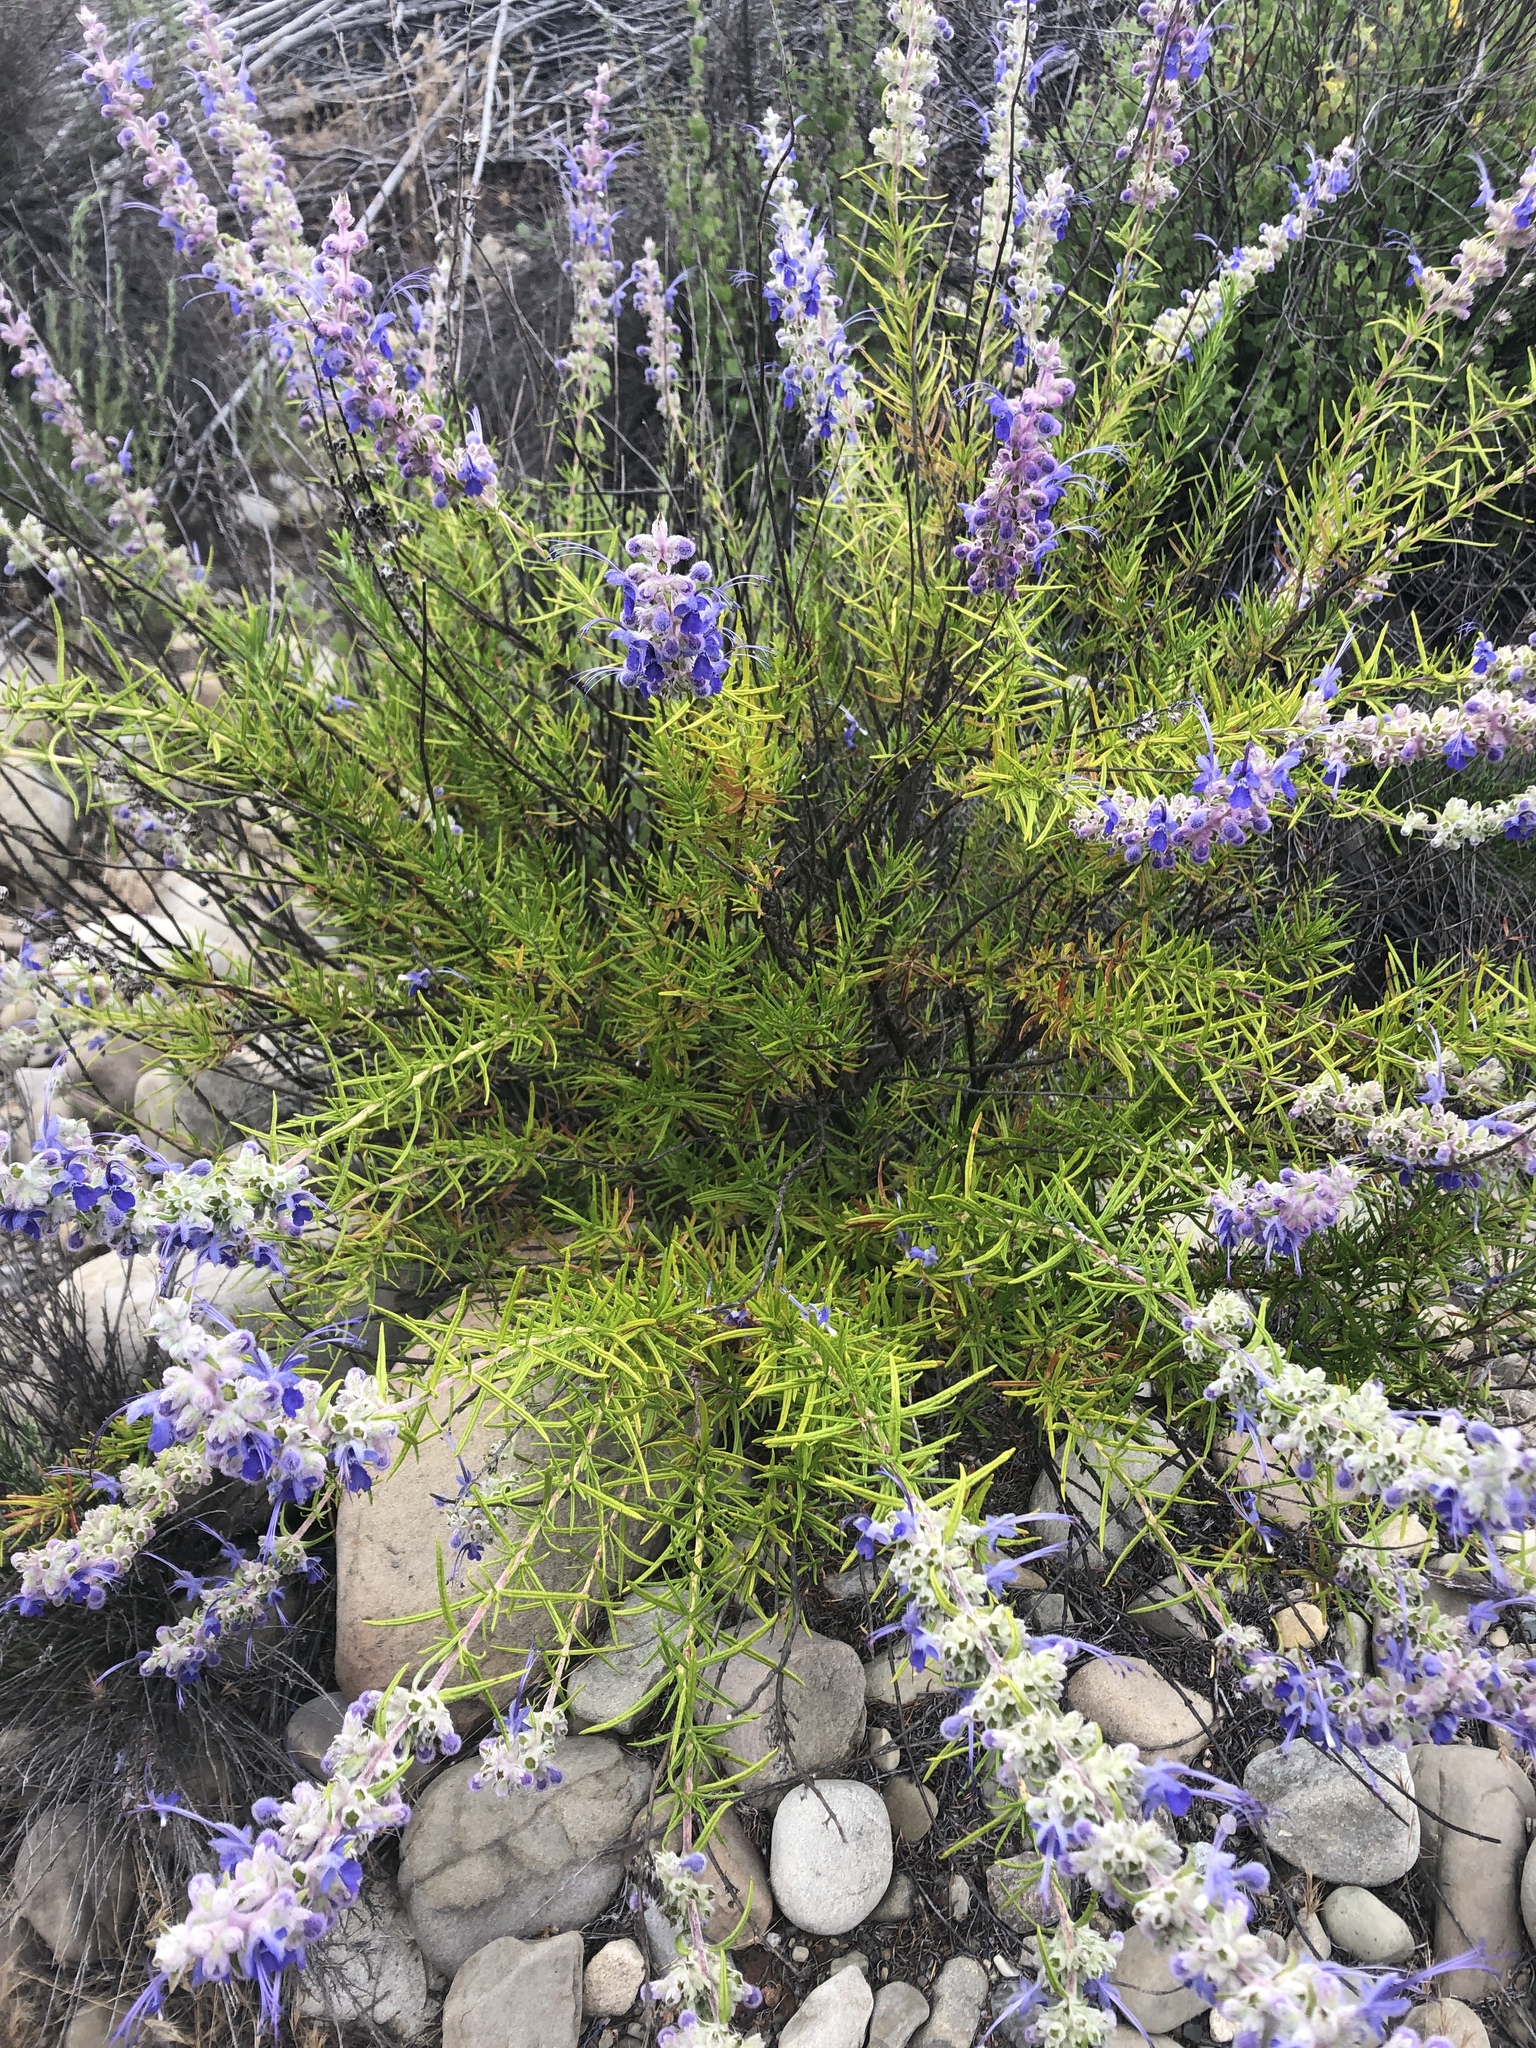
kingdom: Plantae
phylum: Tracheophyta
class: Magnoliopsida
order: Lamiales
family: Lamiaceae
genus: Trichostema
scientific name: Trichostema lanatum
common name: Woolly bluecurls
